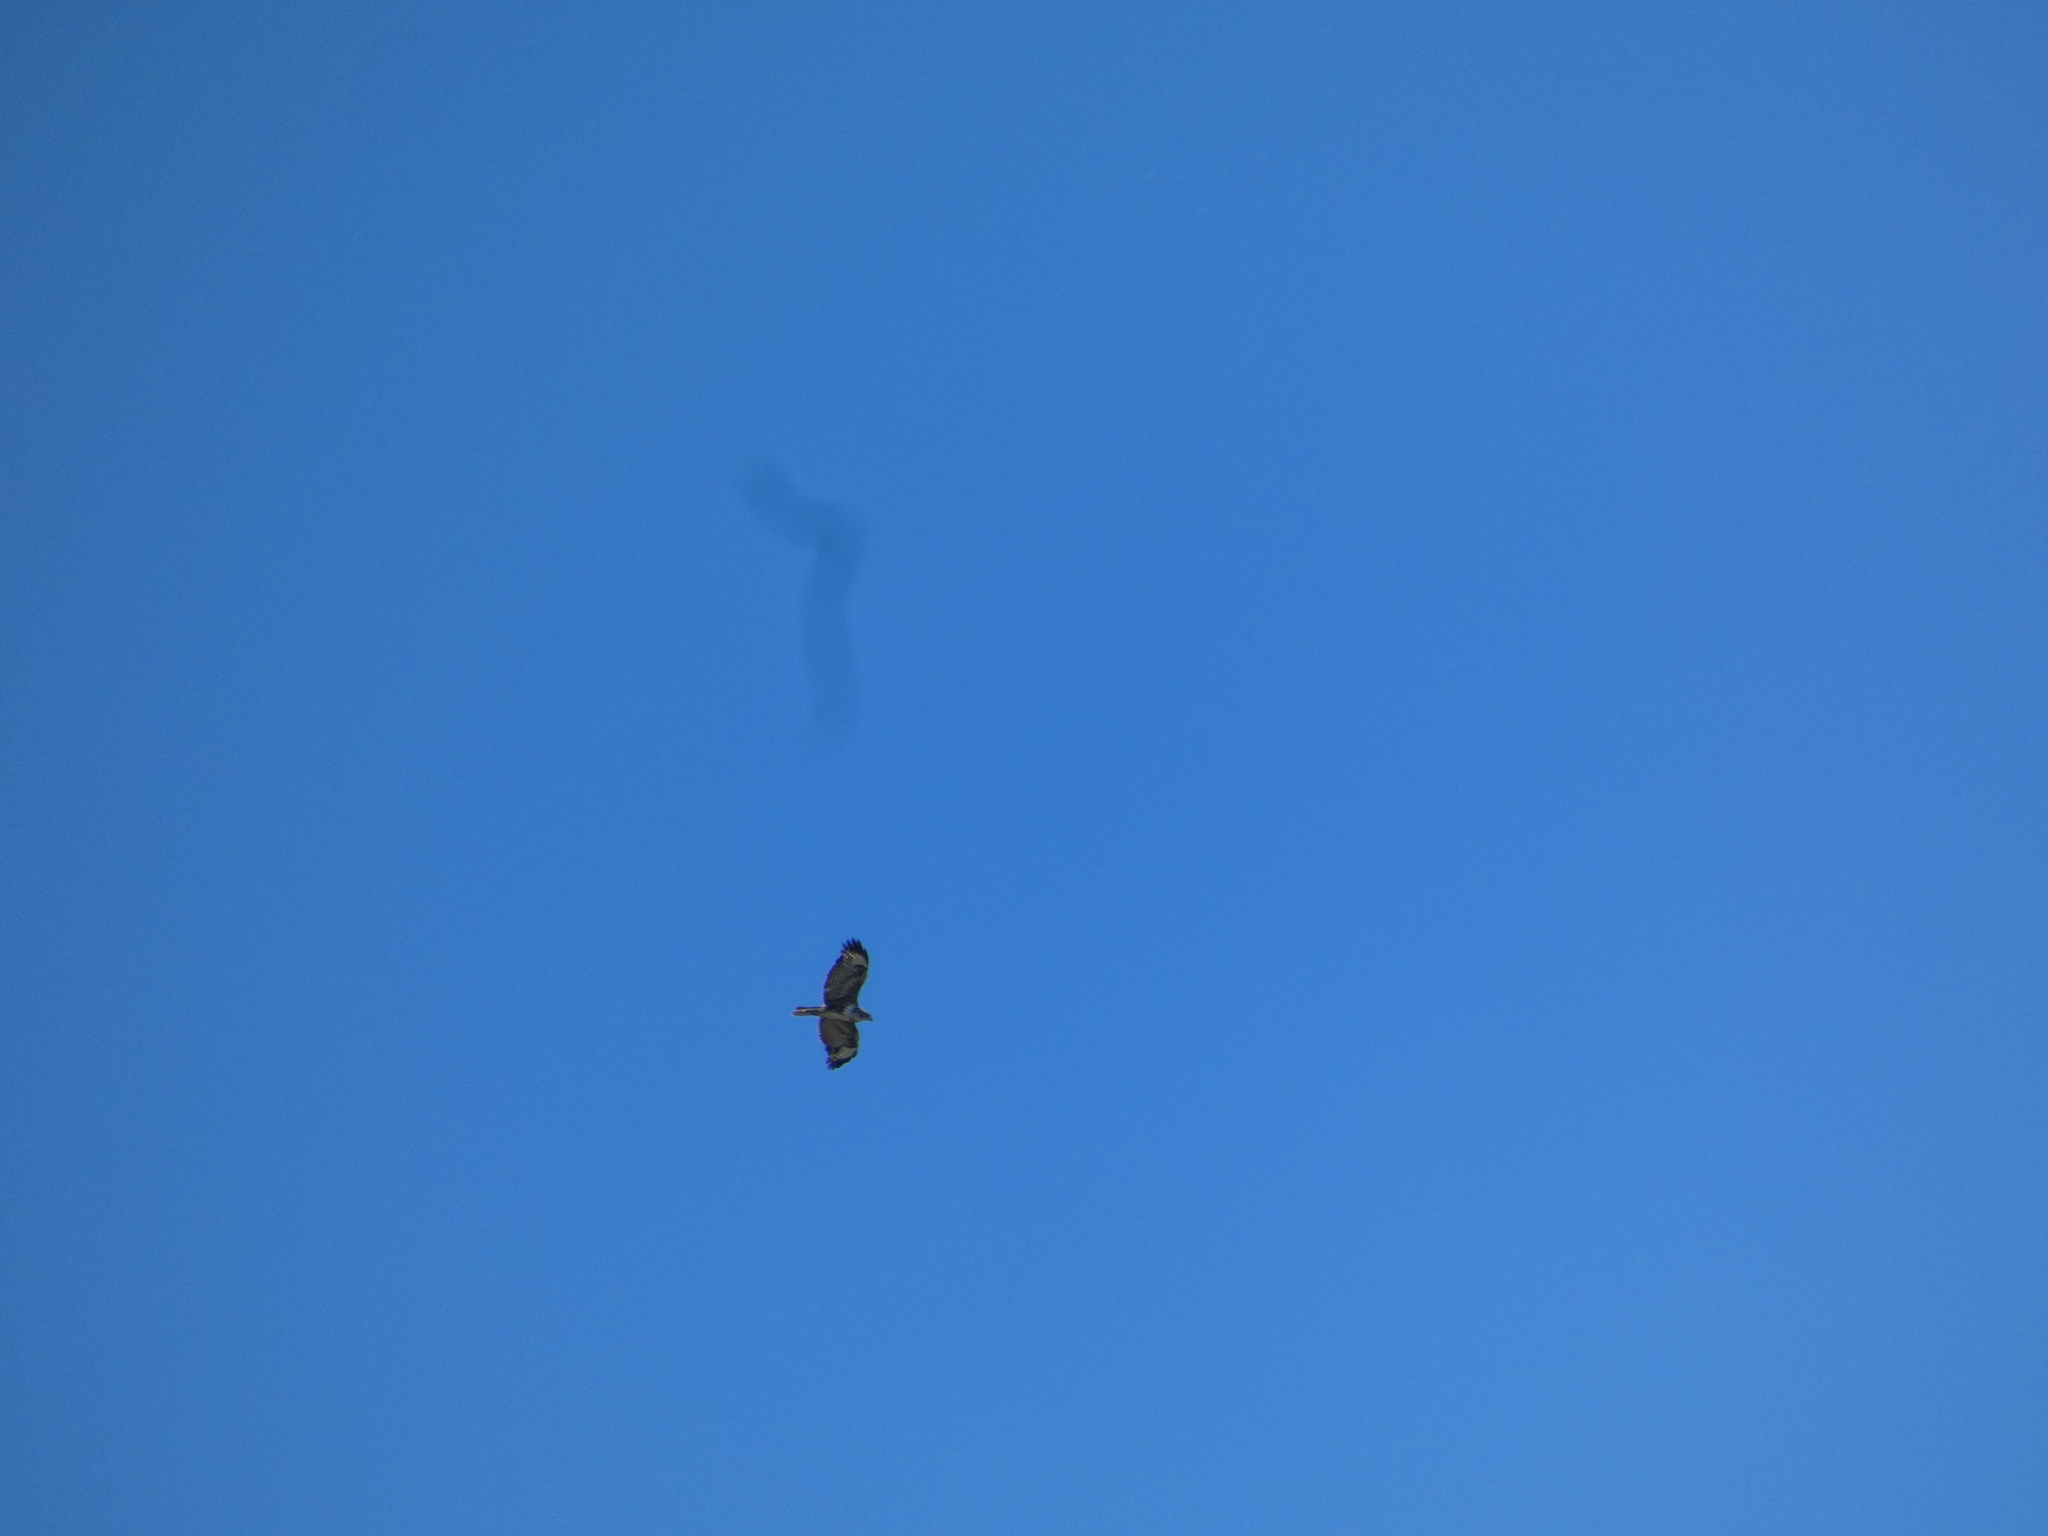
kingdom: Animalia
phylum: Chordata
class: Aves
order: Accipitriformes
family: Accipitridae
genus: Buteo
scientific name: Buteo buteo
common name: Common buzzard
